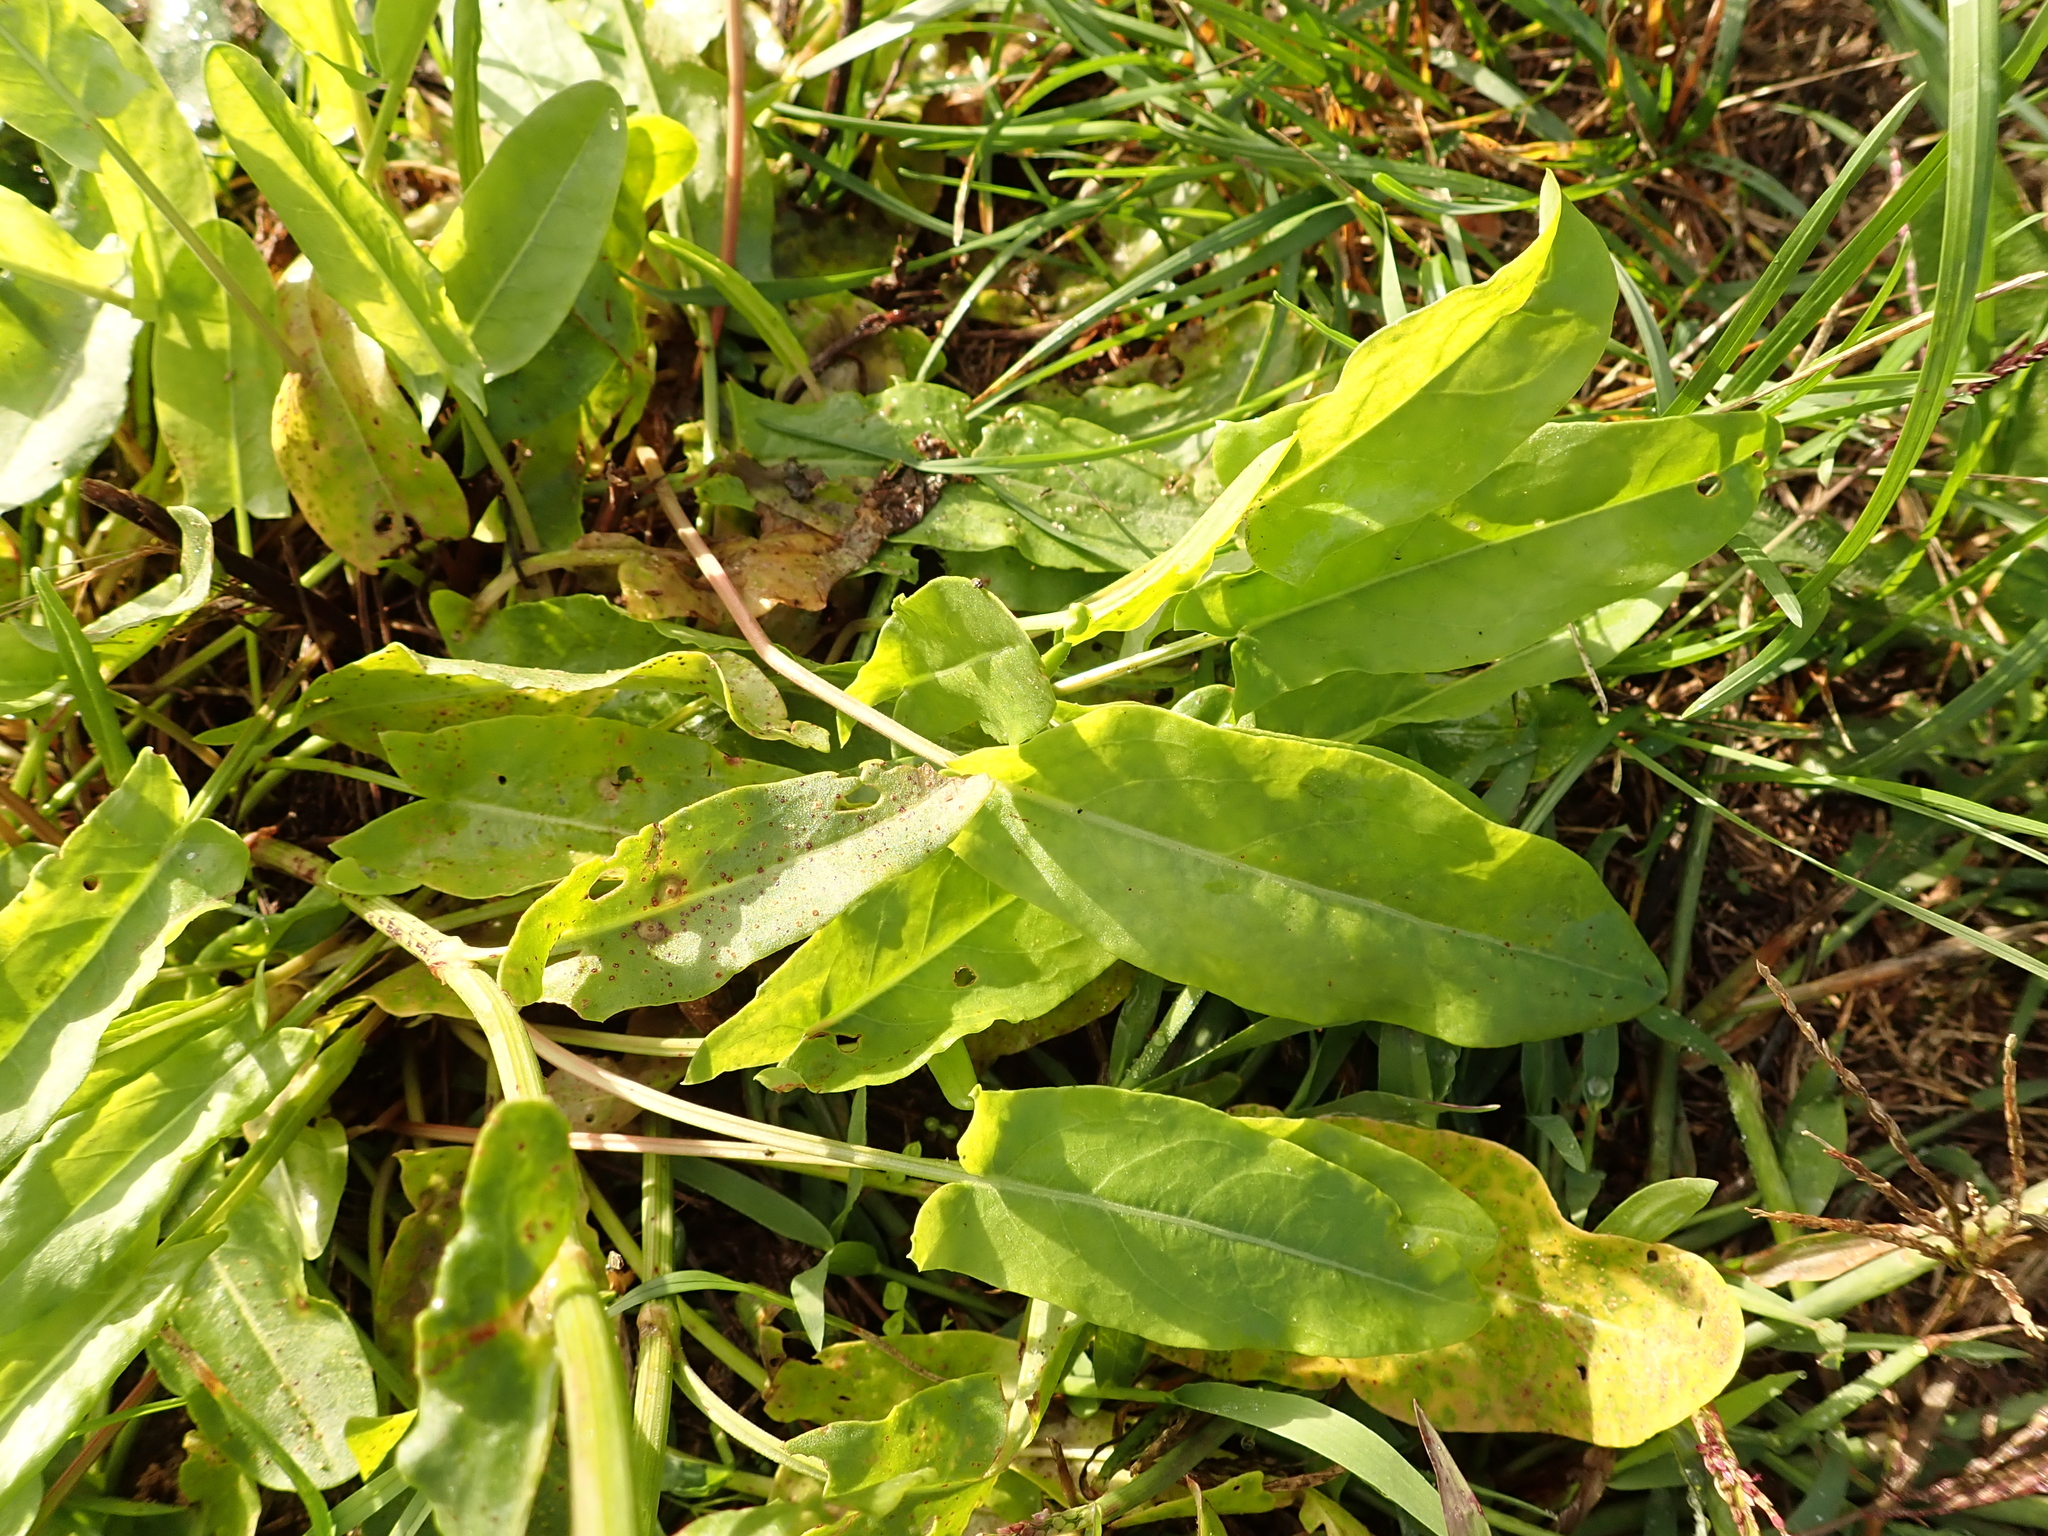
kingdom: Plantae
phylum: Tracheophyta
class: Magnoliopsida
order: Caryophyllales
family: Polygonaceae
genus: Rumex
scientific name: Rumex acetosa
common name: Garden sorrel
